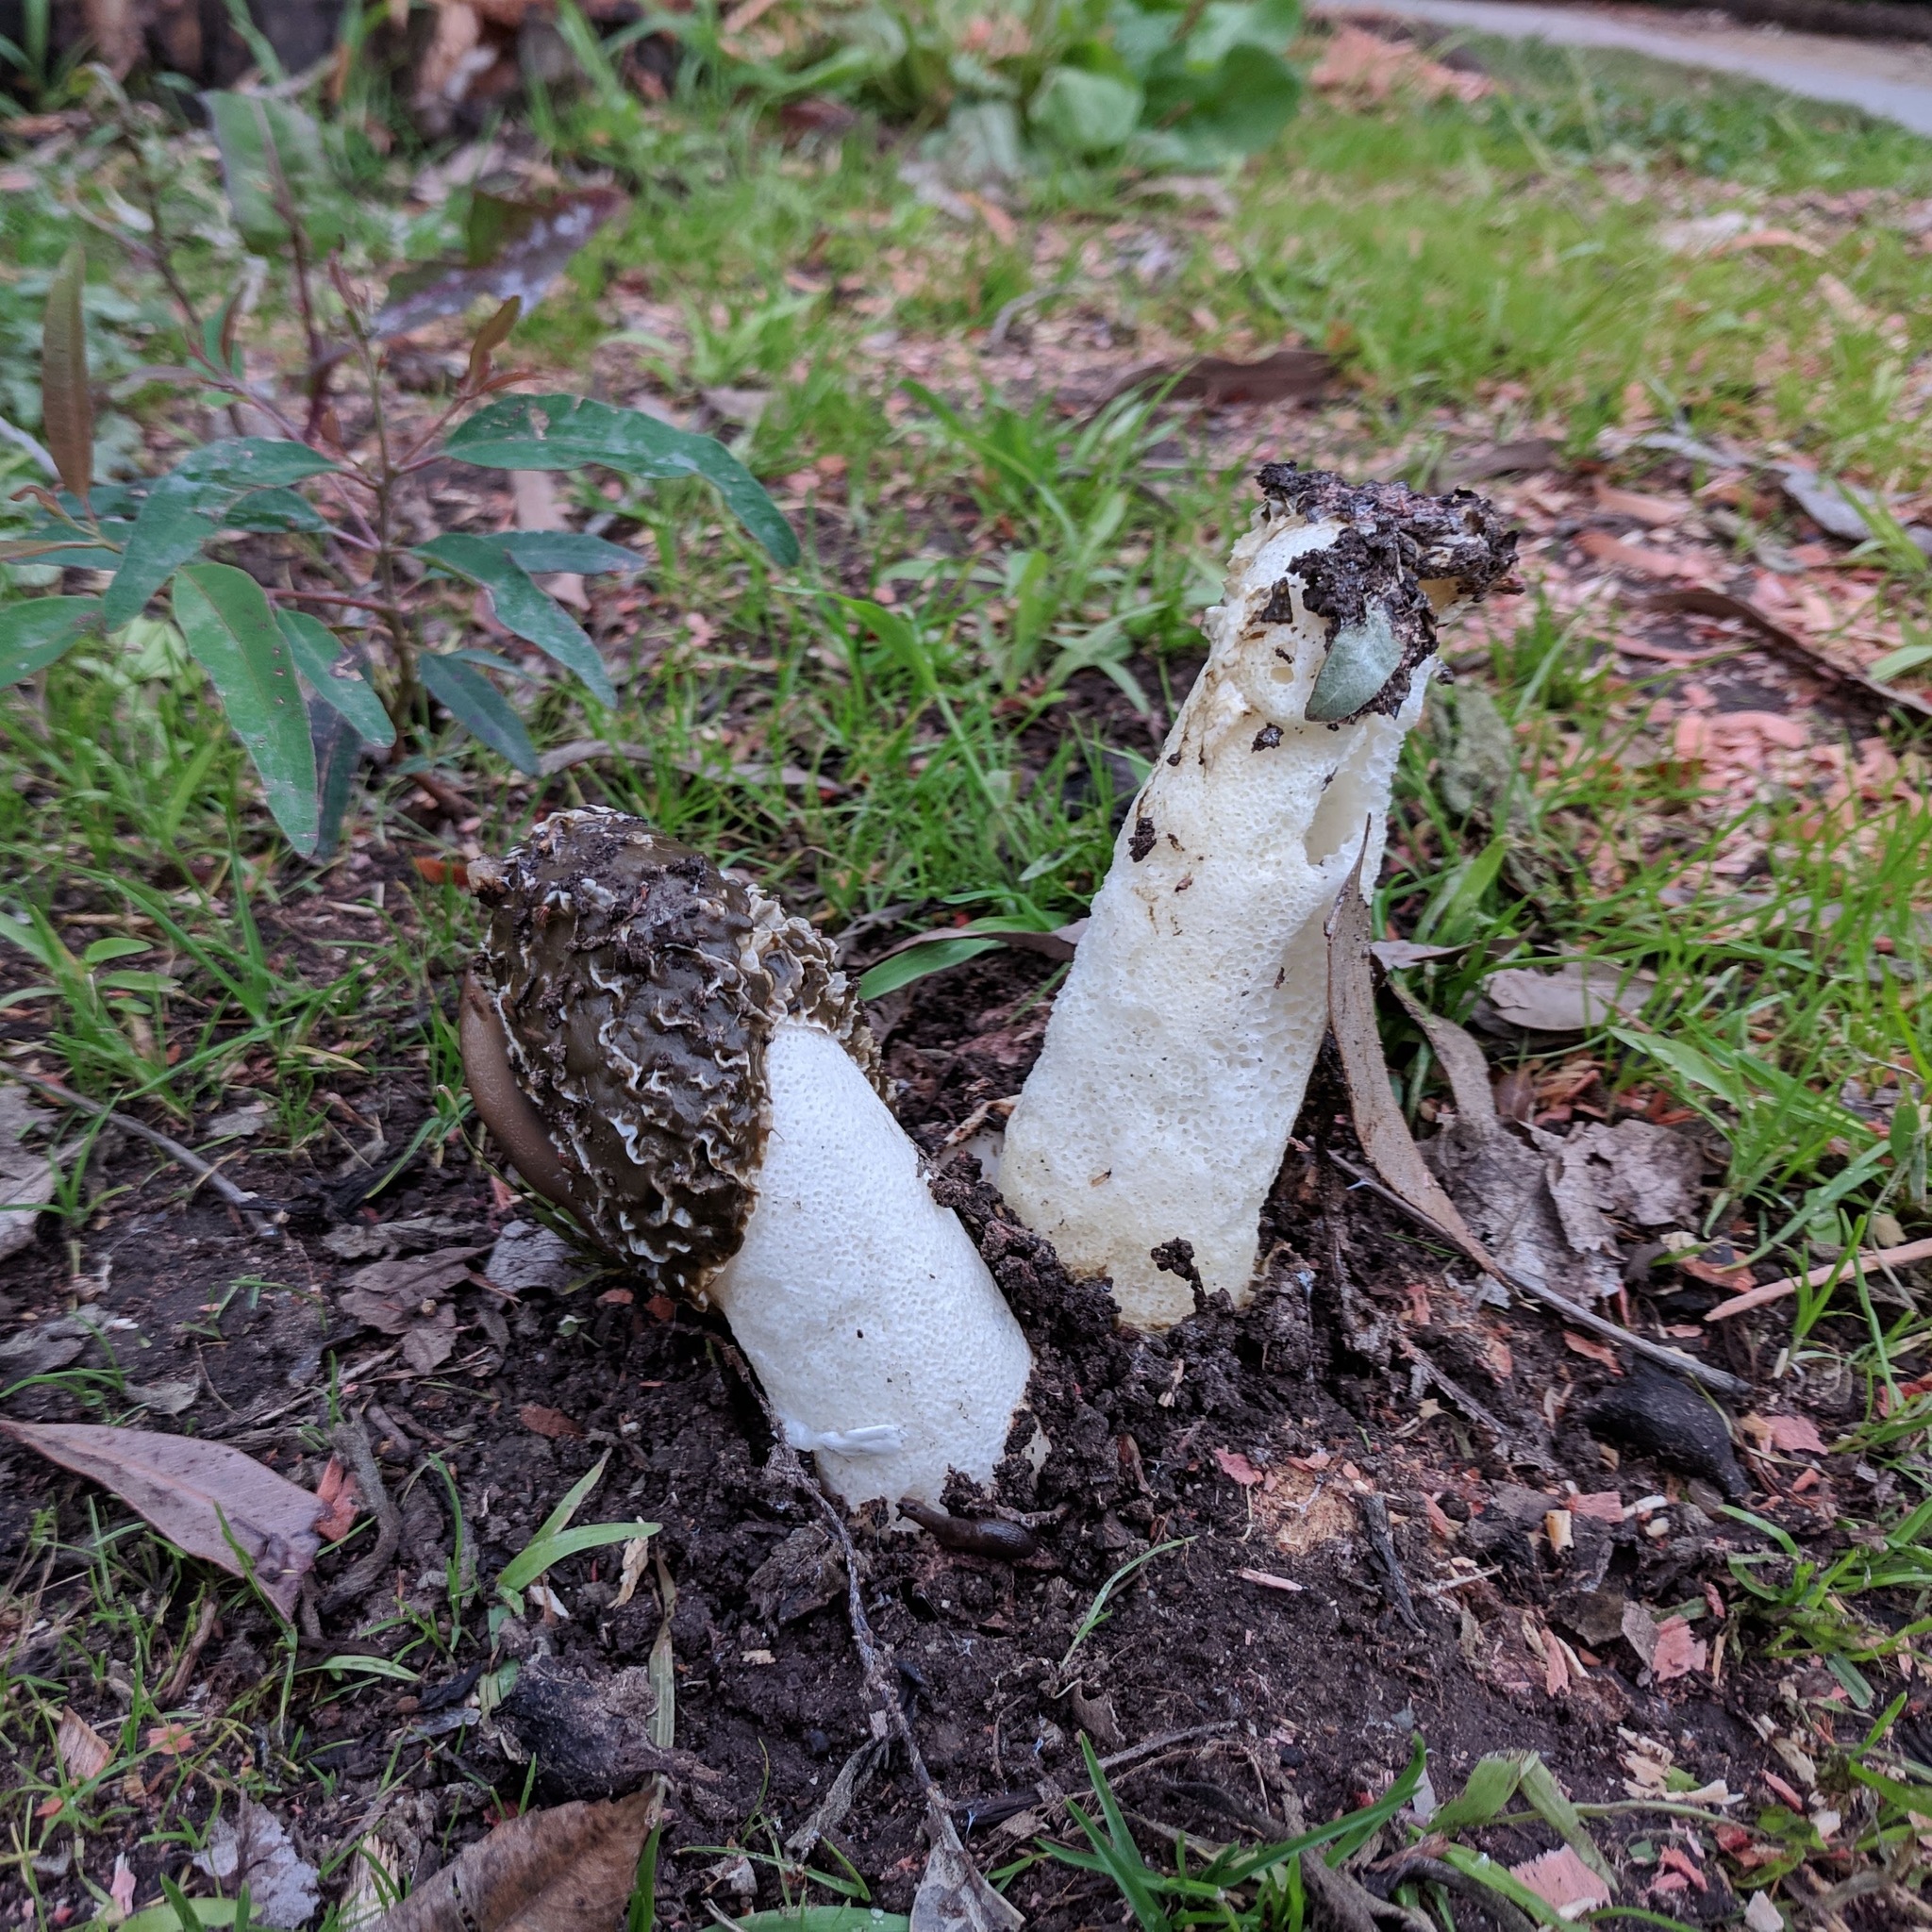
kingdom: Fungi
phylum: Basidiomycota
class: Agaricomycetes
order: Phallales
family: Phallaceae
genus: Phallus
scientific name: Phallus hadriani
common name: Sand stinkhorn
